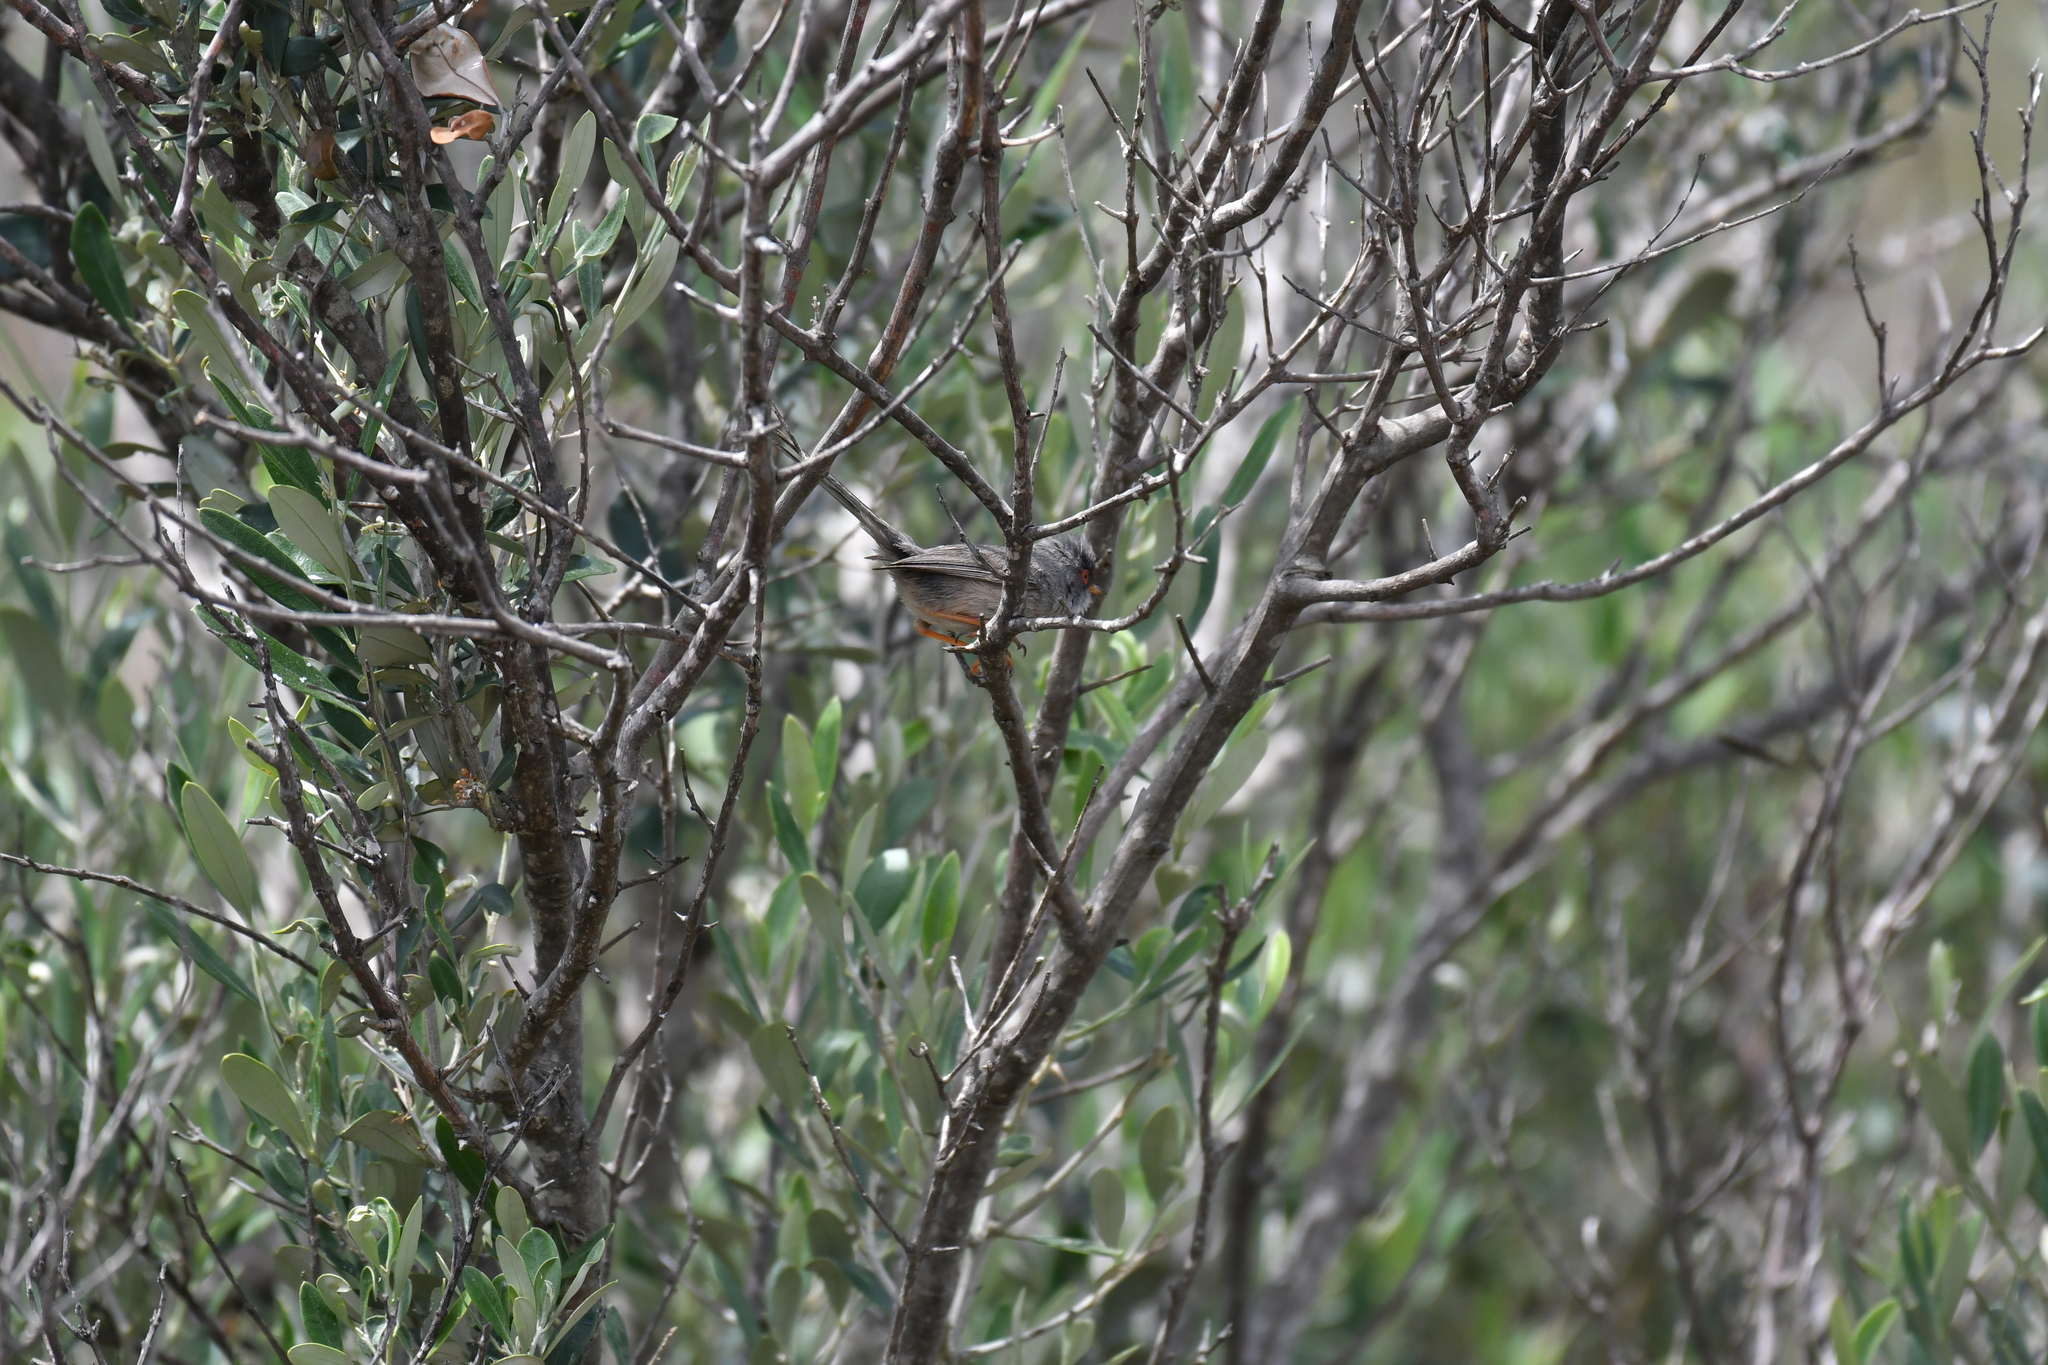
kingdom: Animalia
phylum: Chordata
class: Aves
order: Passeriformes
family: Sylviidae
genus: Curruca
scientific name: Curruca balearica
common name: Balearic warbler
